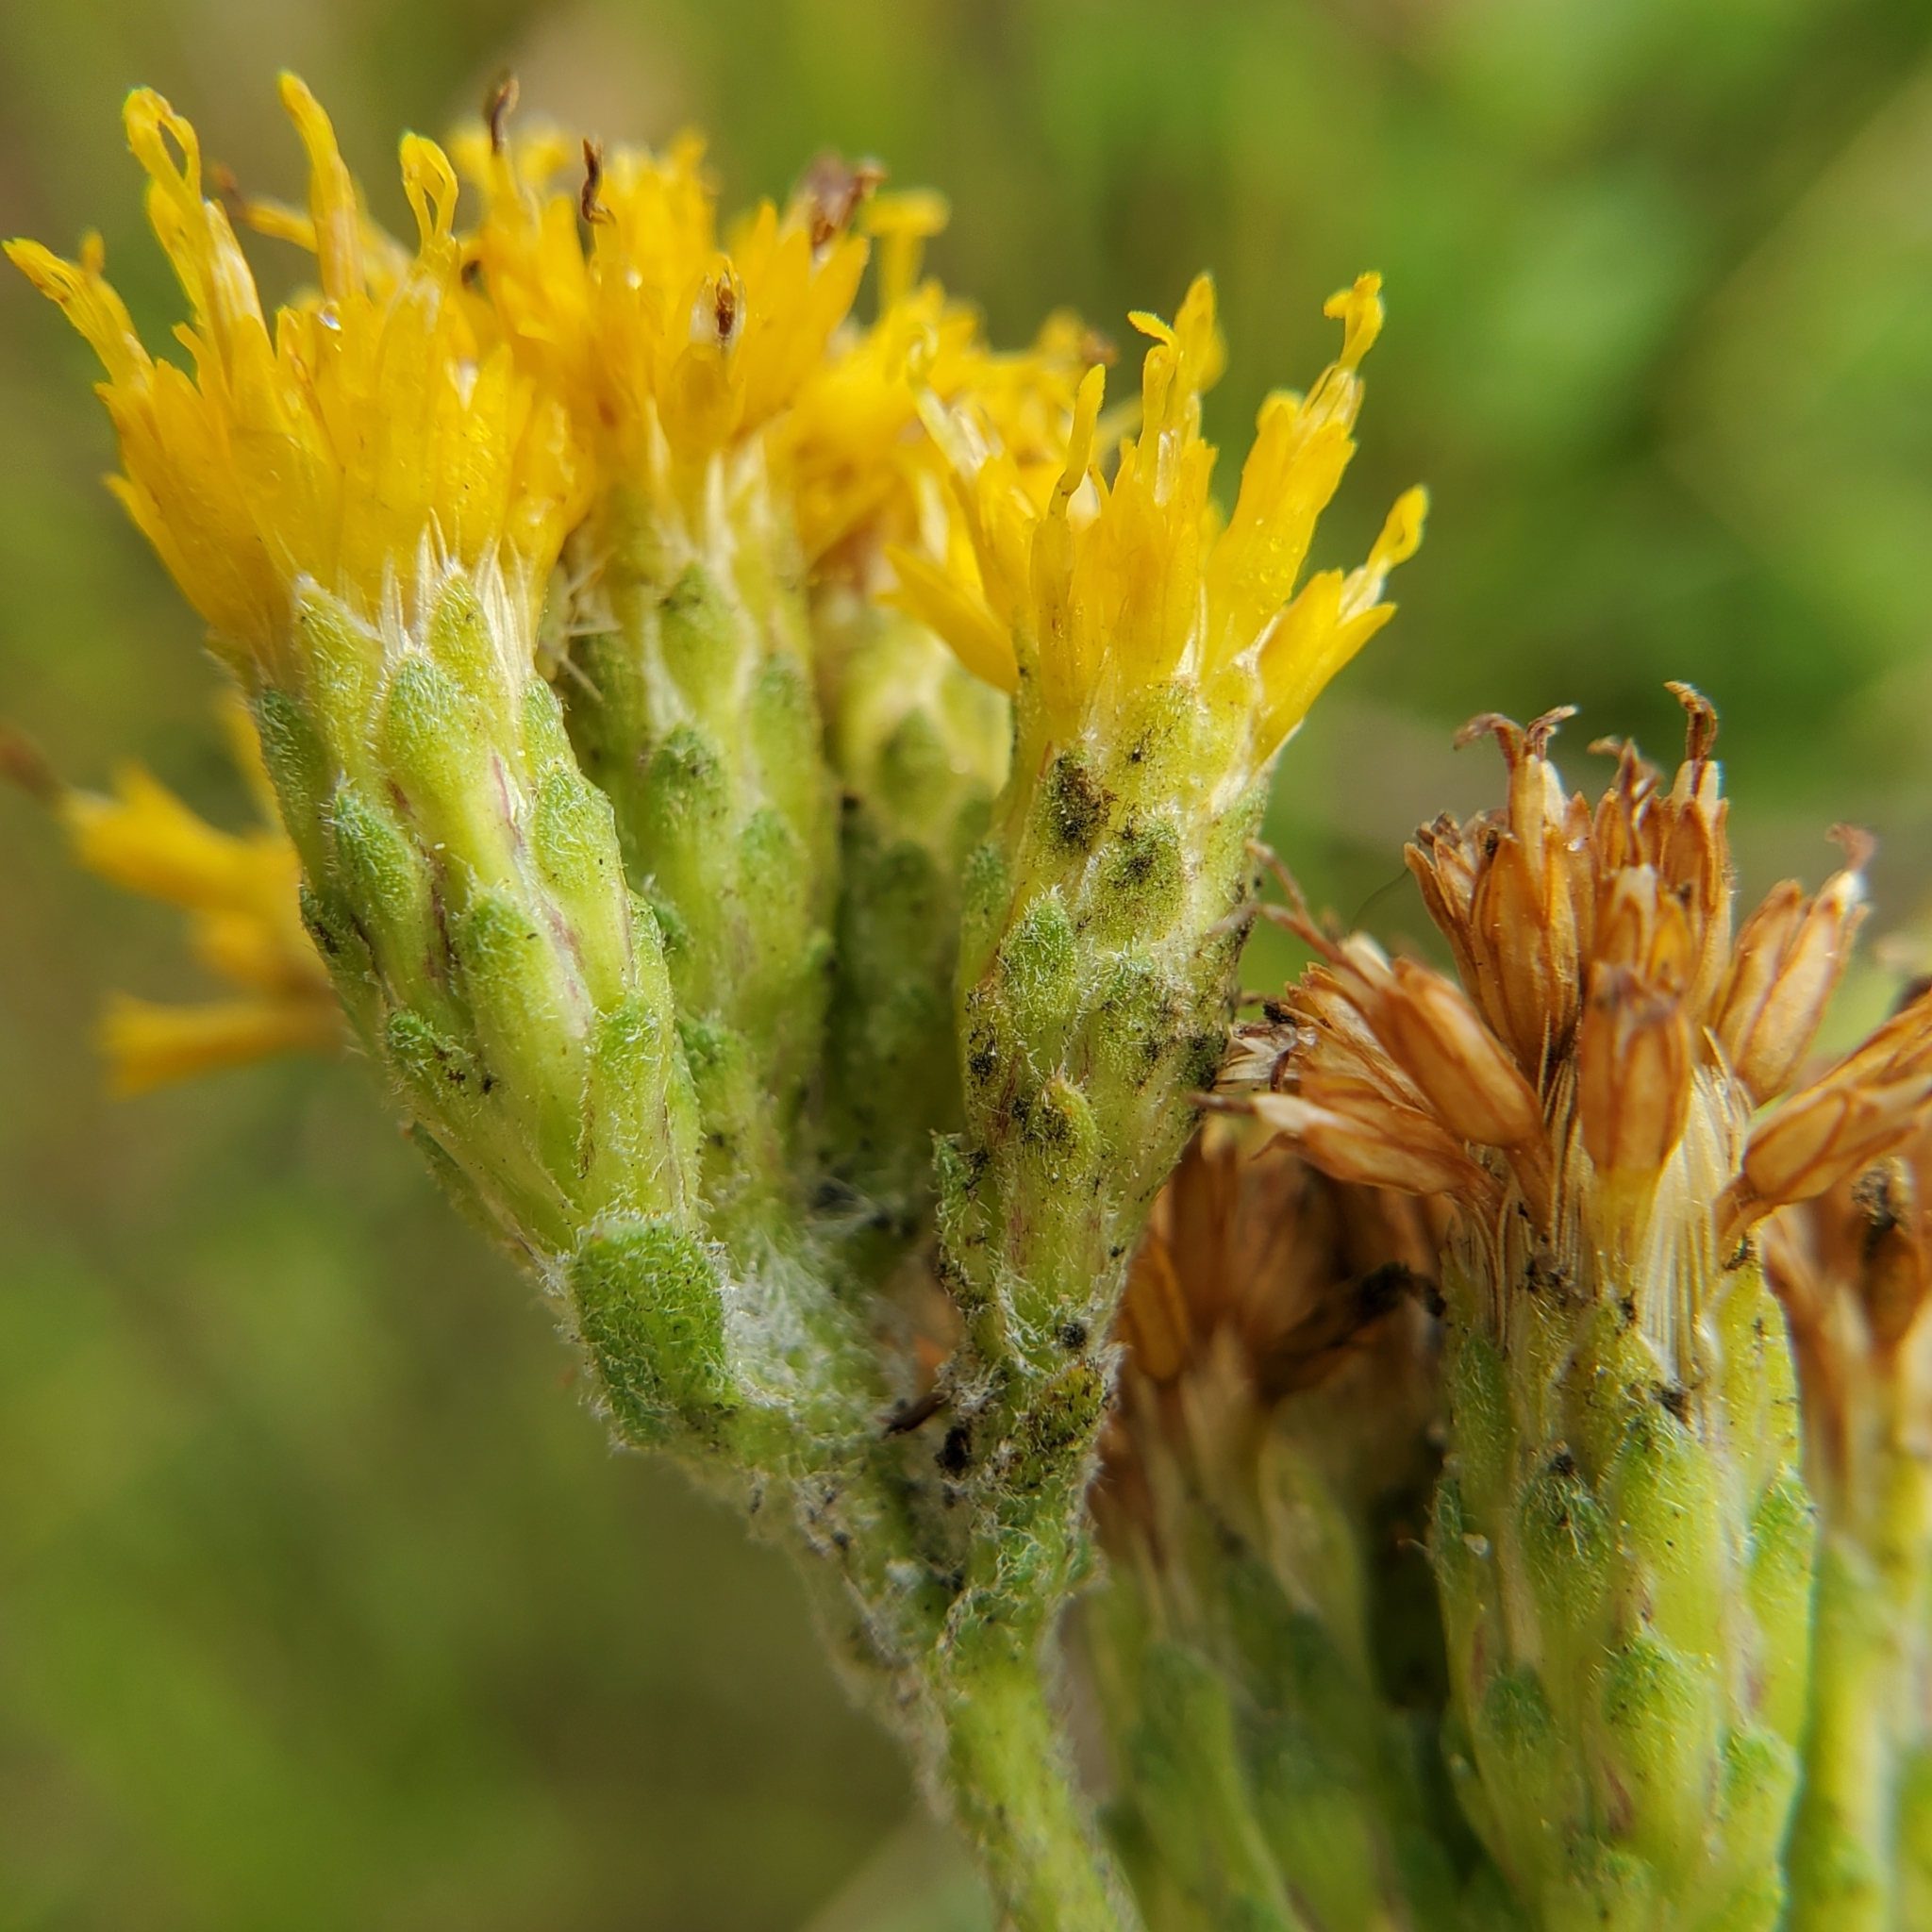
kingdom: Plantae
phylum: Tracheophyta
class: Magnoliopsida
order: Asterales
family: Asteraceae
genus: Isocoma
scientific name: Isocoma menziesii
